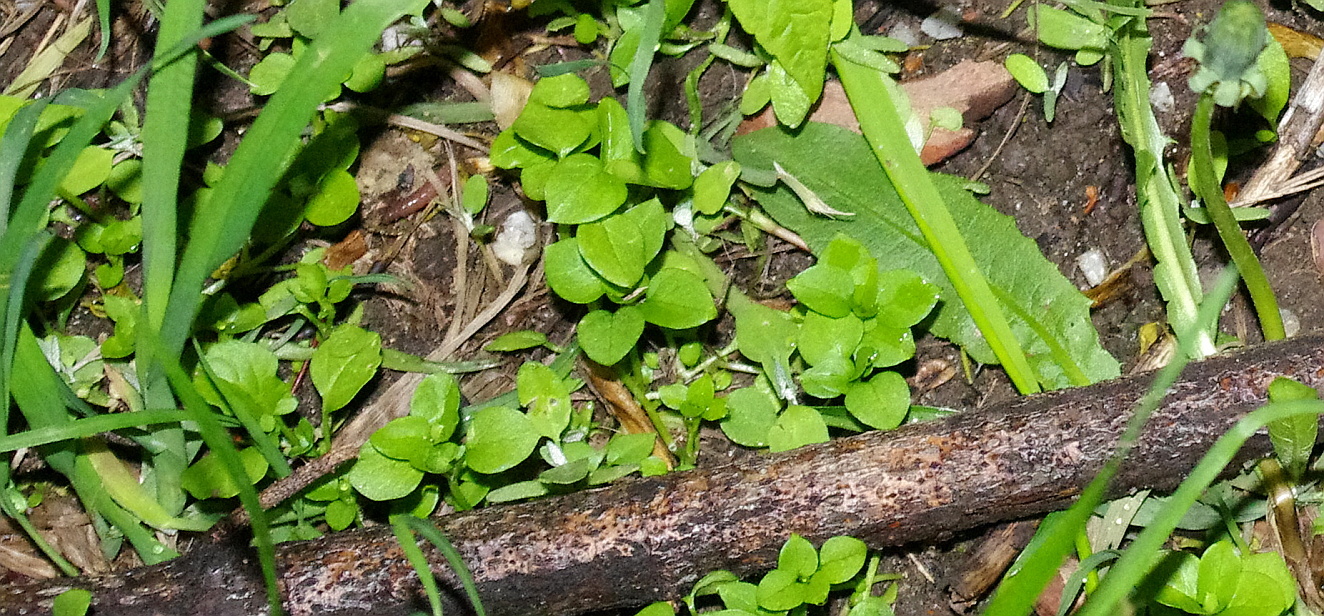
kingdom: Plantae
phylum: Tracheophyta
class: Magnoliopsida
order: Caryophyllales
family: Caryophyllaceae
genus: Stellaria
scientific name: Stellaria media
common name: Common chickweed
